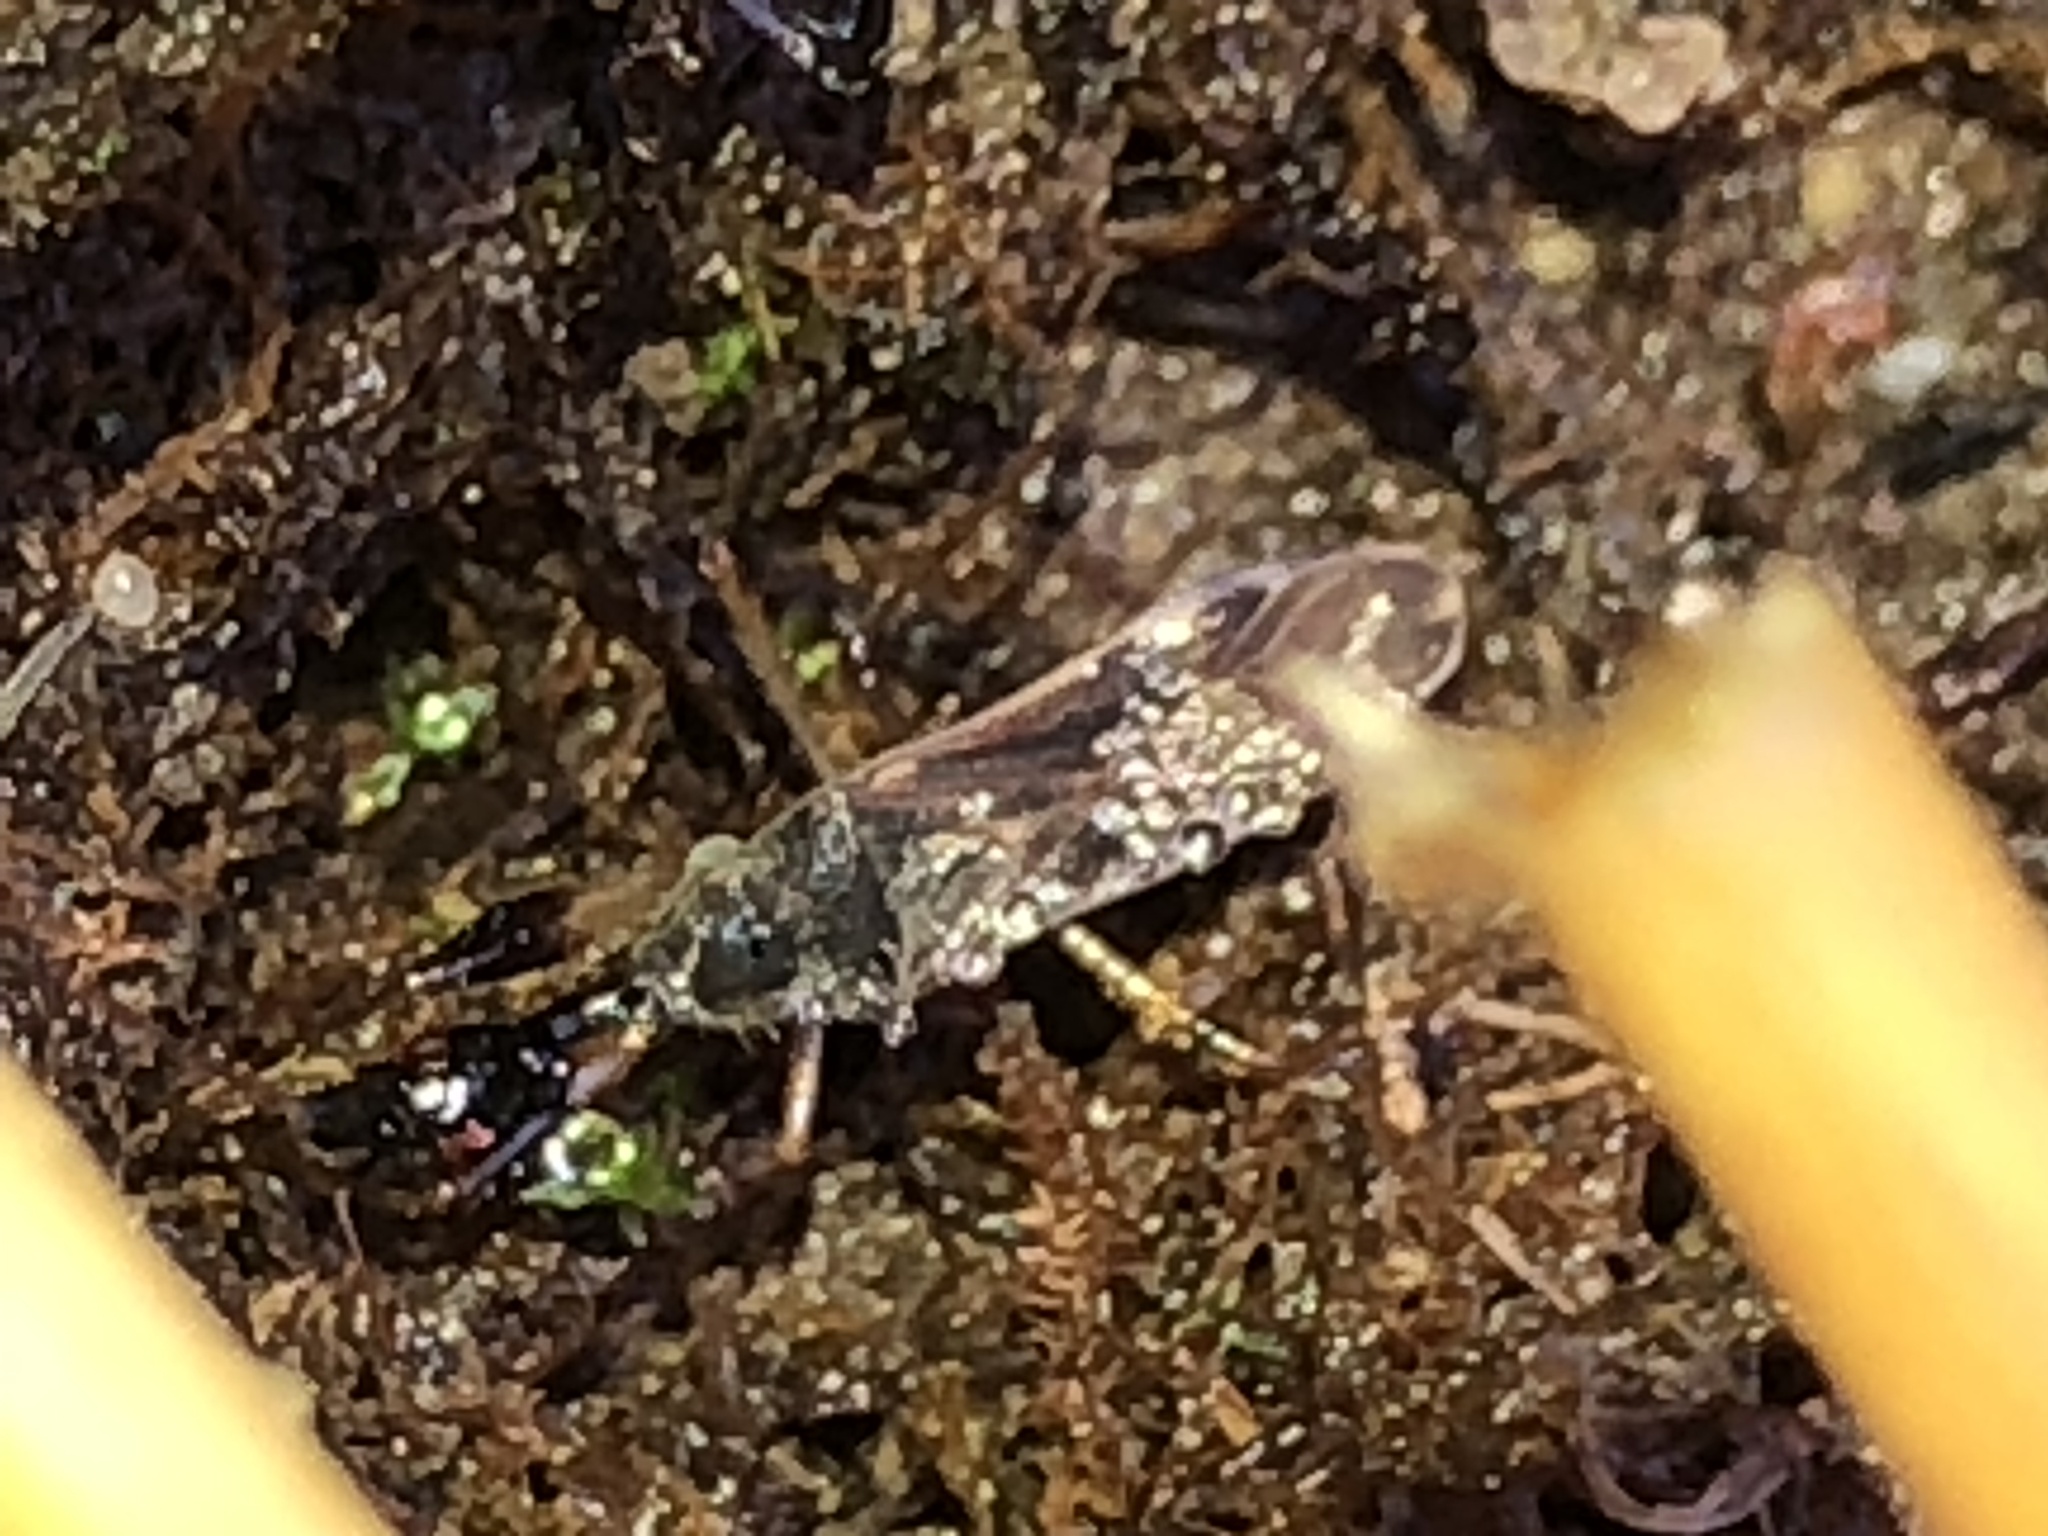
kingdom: Animalia
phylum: Arthropoda
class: Insecta
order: Hemiptera
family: Rhyparochromidae
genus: Myodocha
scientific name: Myodocha serripes
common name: Long-necked seed bug
